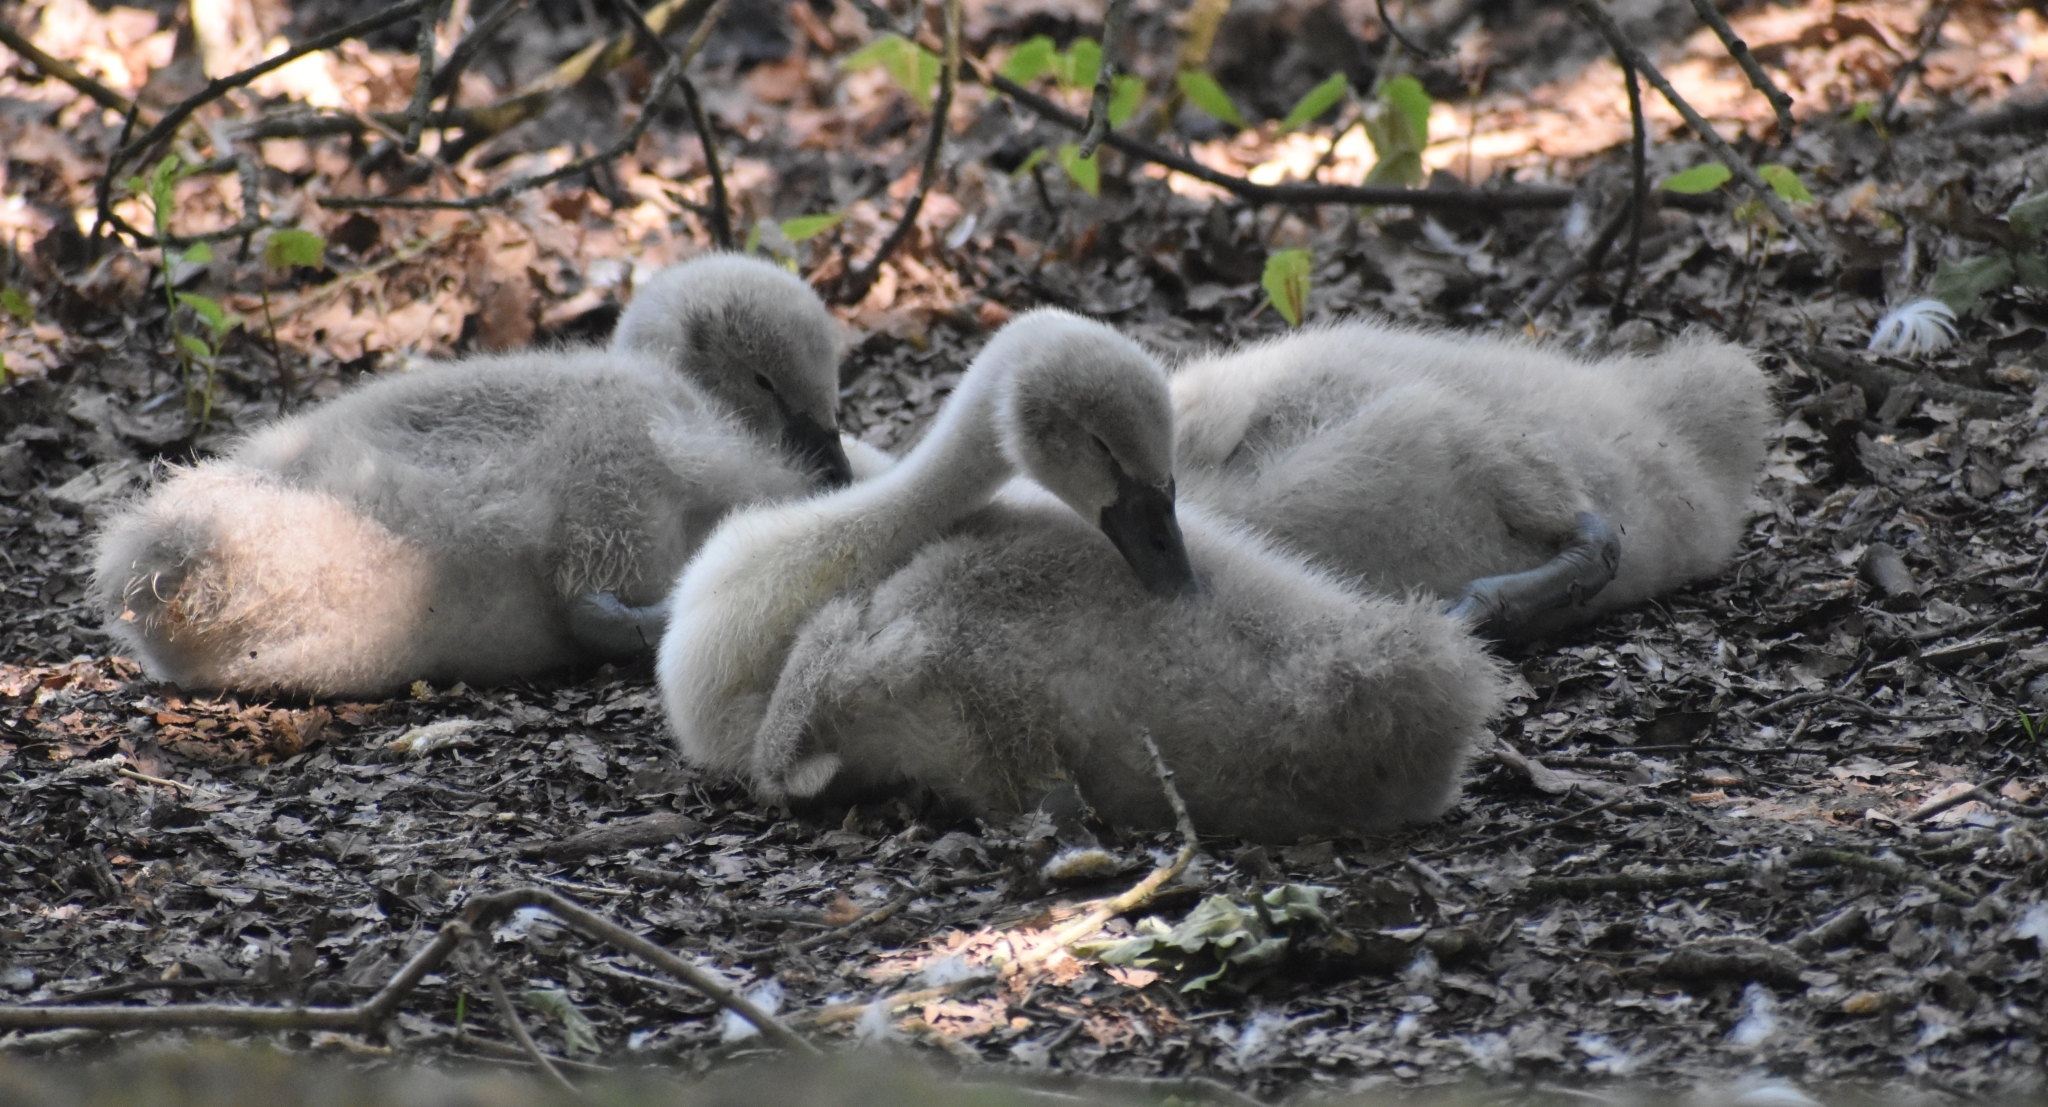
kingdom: Animalia
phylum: Chordata
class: Aves
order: Anseriformes
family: Anatidae
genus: Cygnus
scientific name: Cygnus olor
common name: Mute swan
